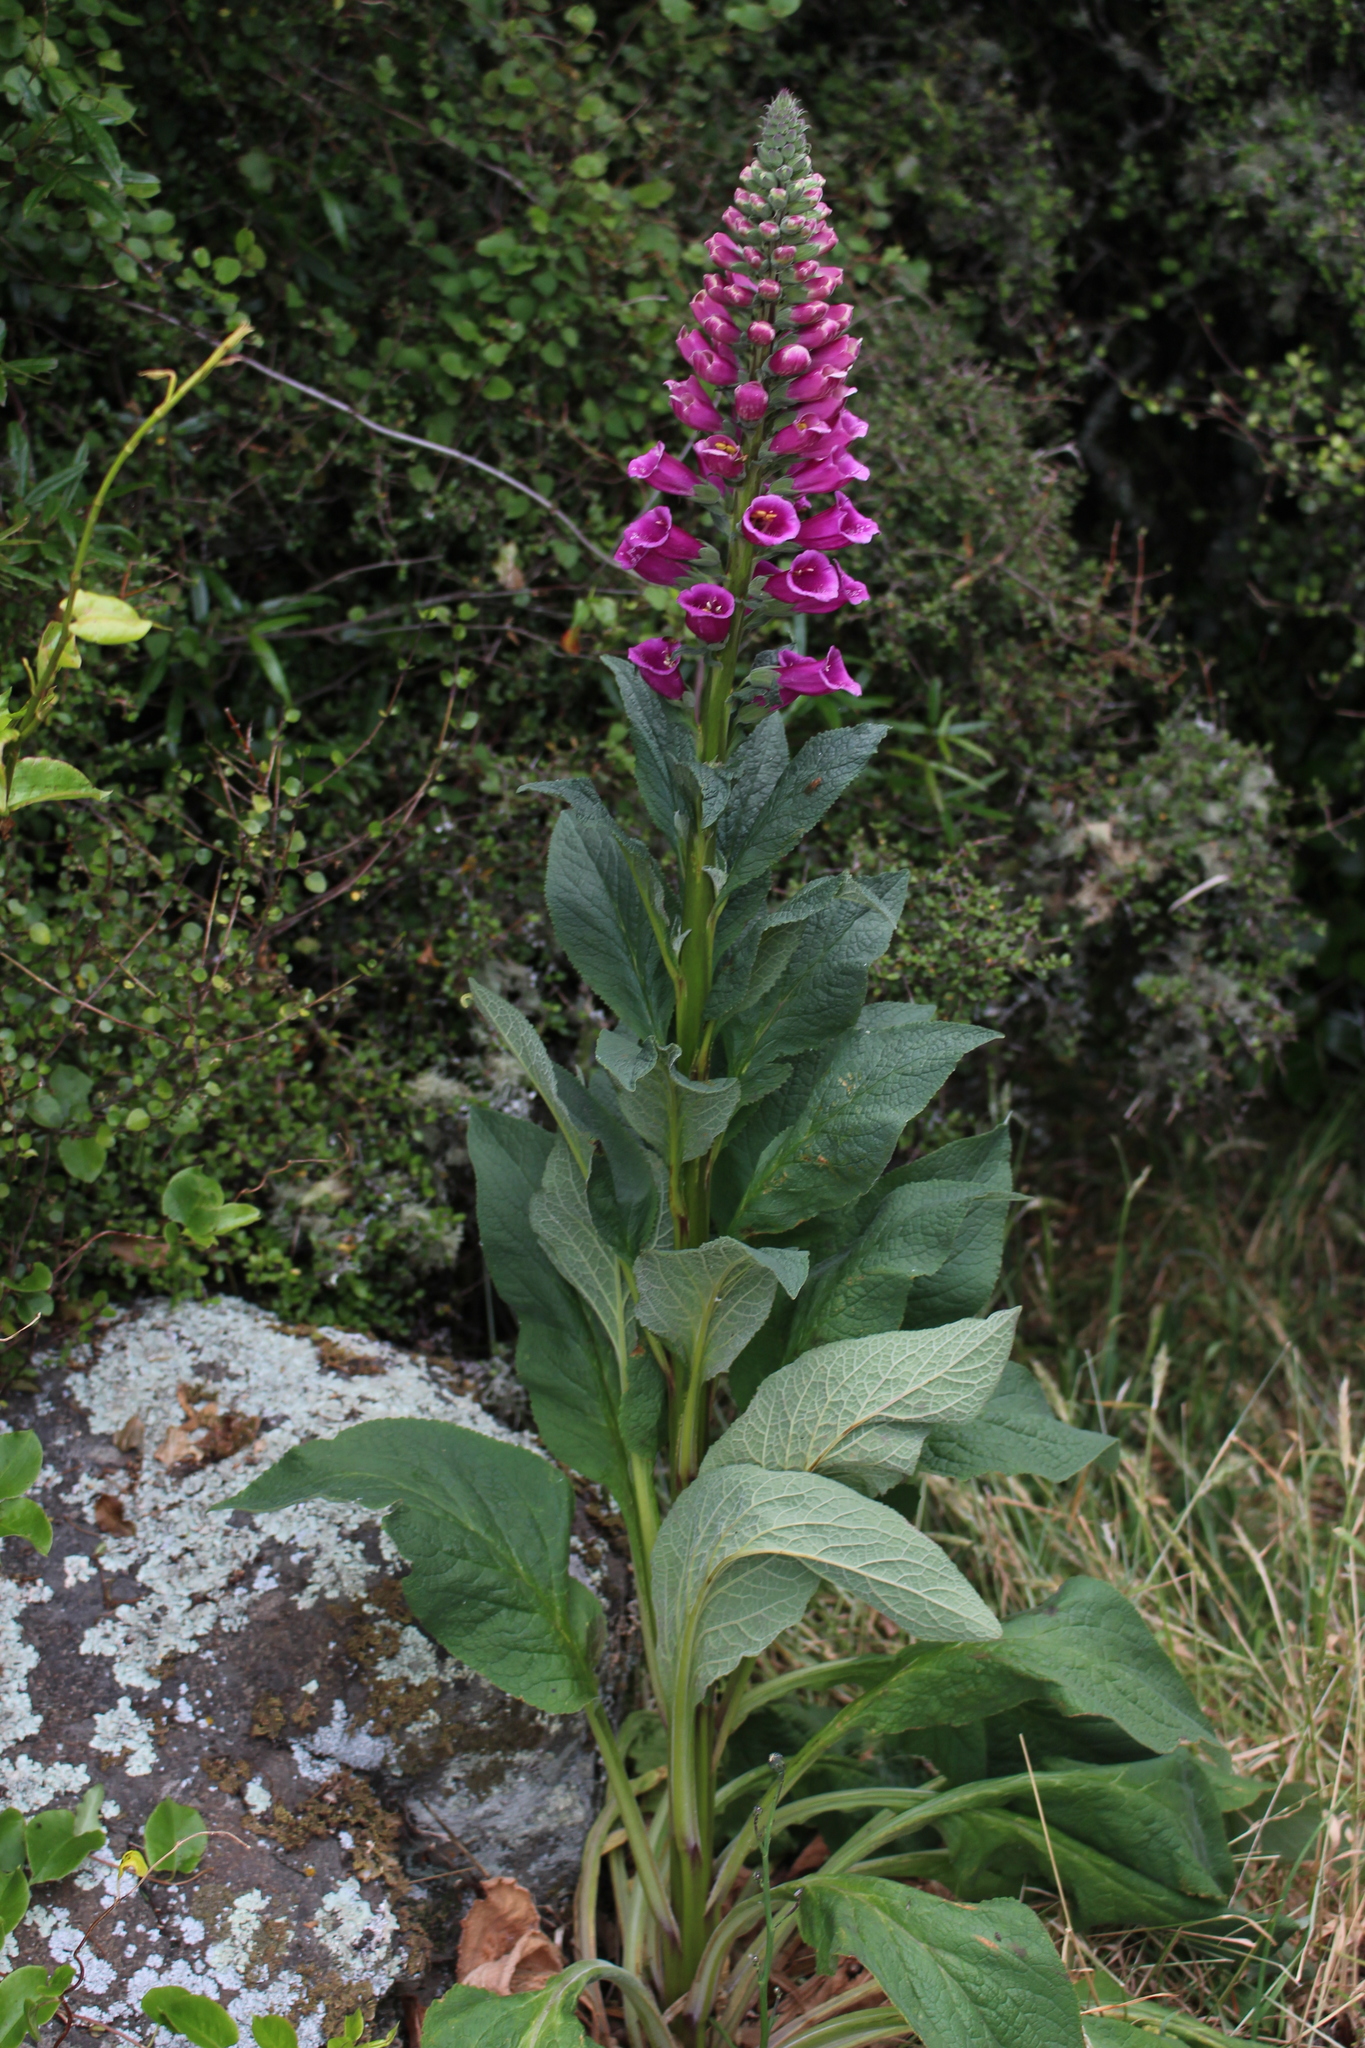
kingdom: Plantae
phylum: Tracheophyta
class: Magnoliopsida
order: Lamiales
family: Plantaginaceae
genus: Digitalis
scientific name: Digitalis purpurea
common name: Foxglove
